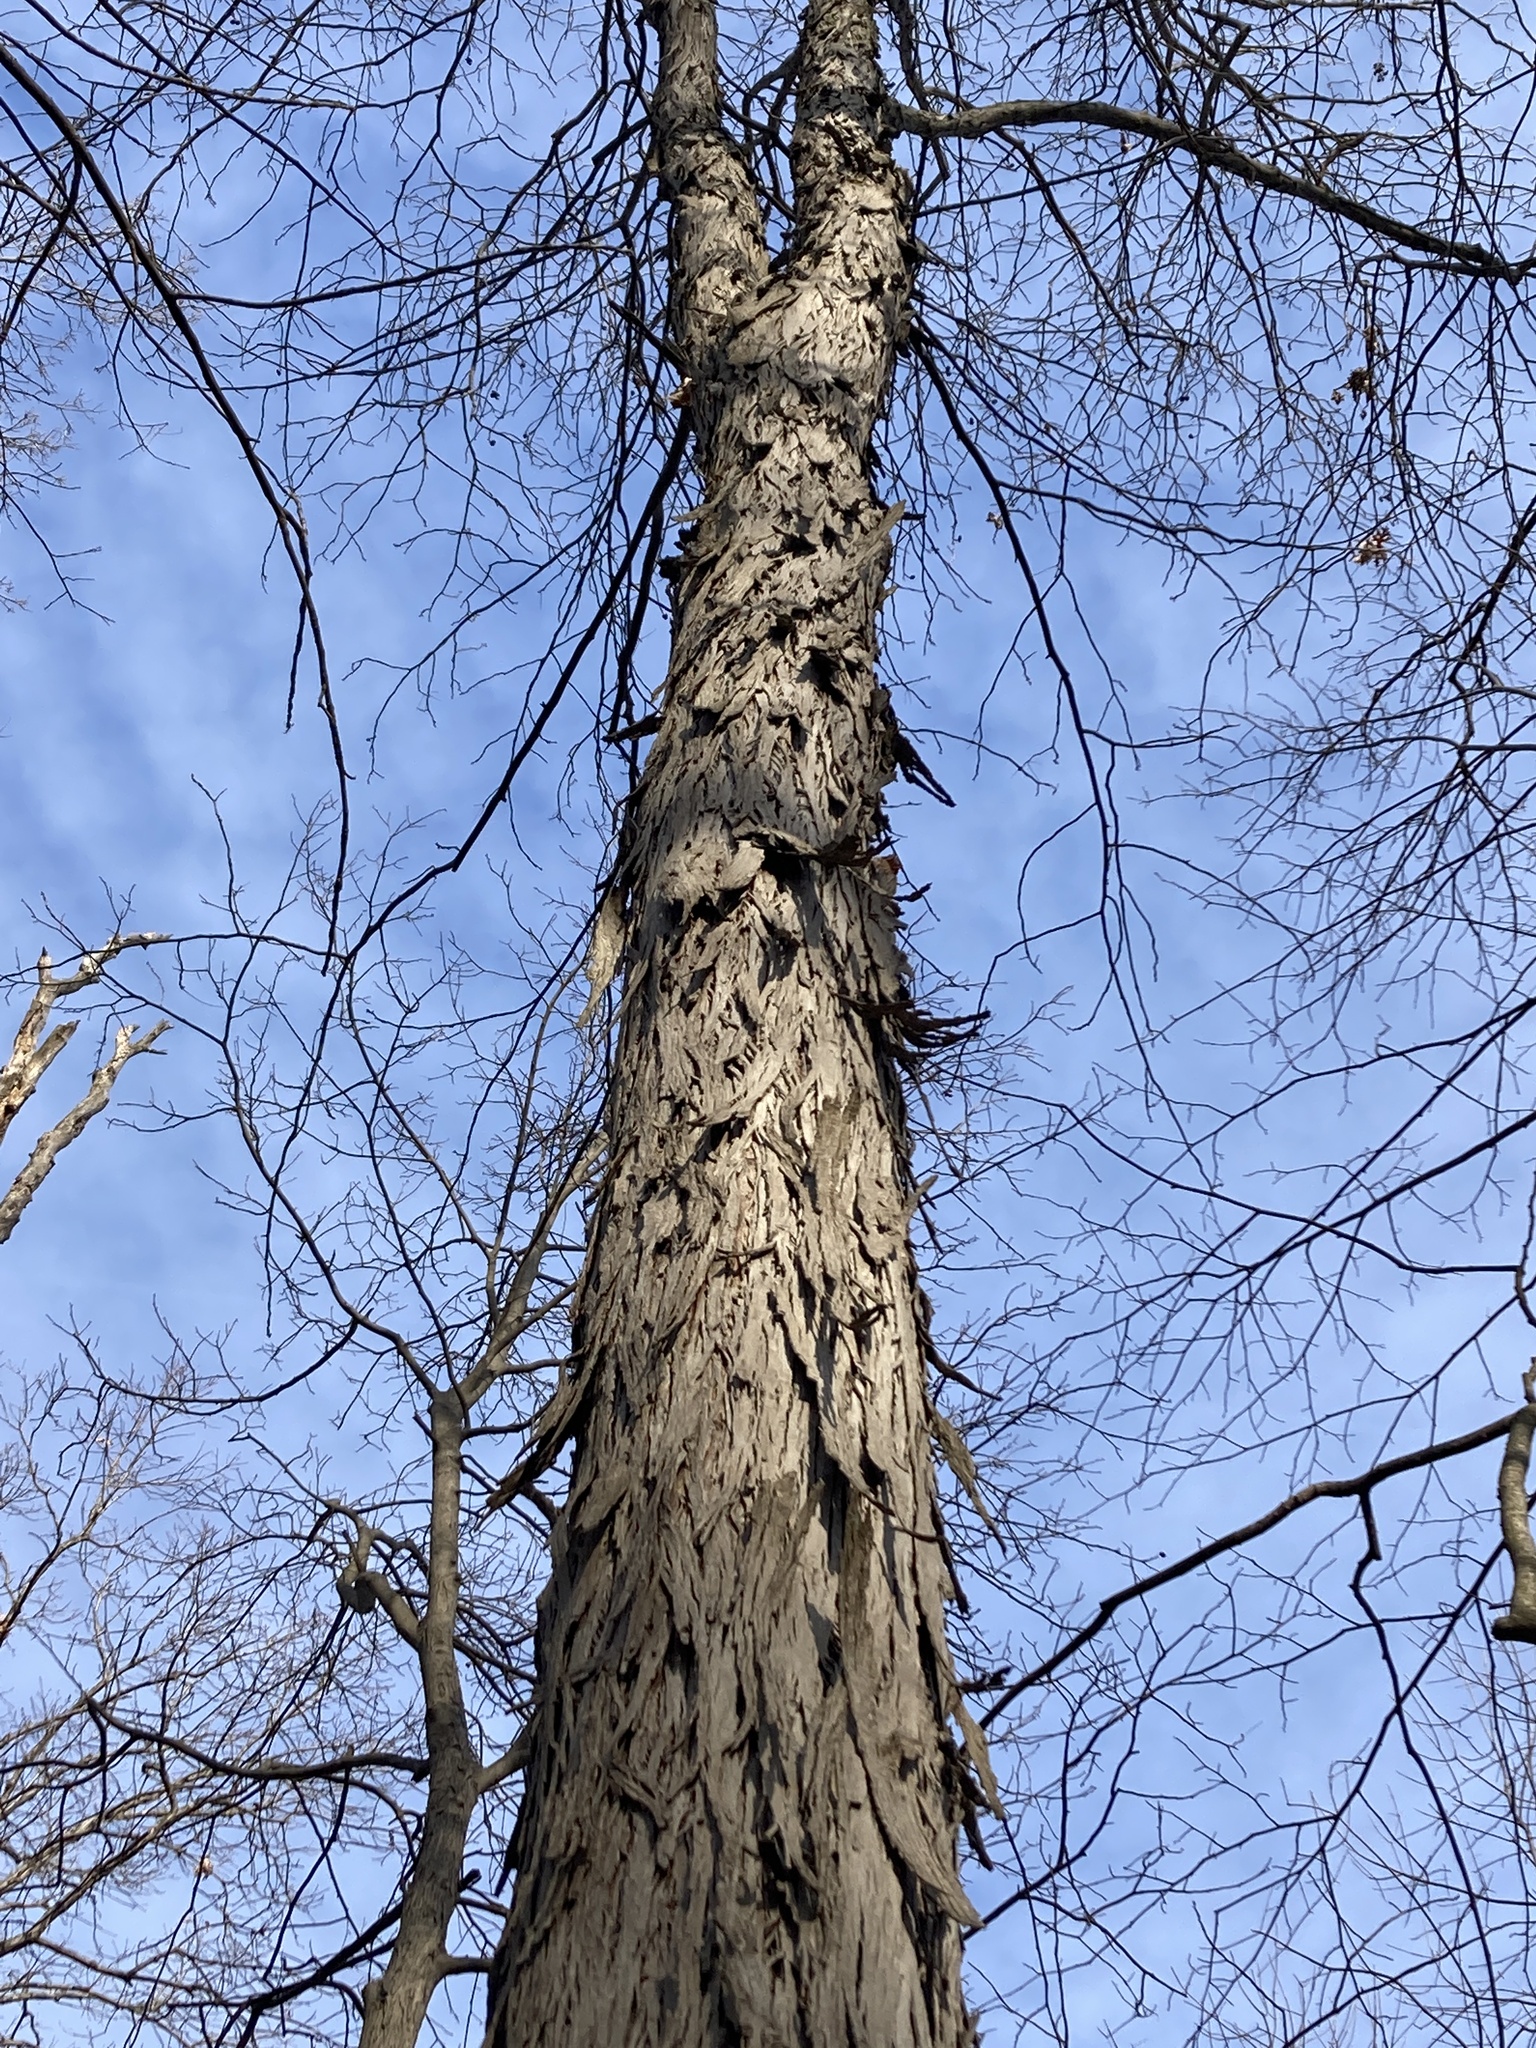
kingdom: Plantae
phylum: Tracheophyta
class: Magnoliopsida
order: Fagales
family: Juglandaceae
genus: Carya
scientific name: Carya ovata
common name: Shagbark hickory
